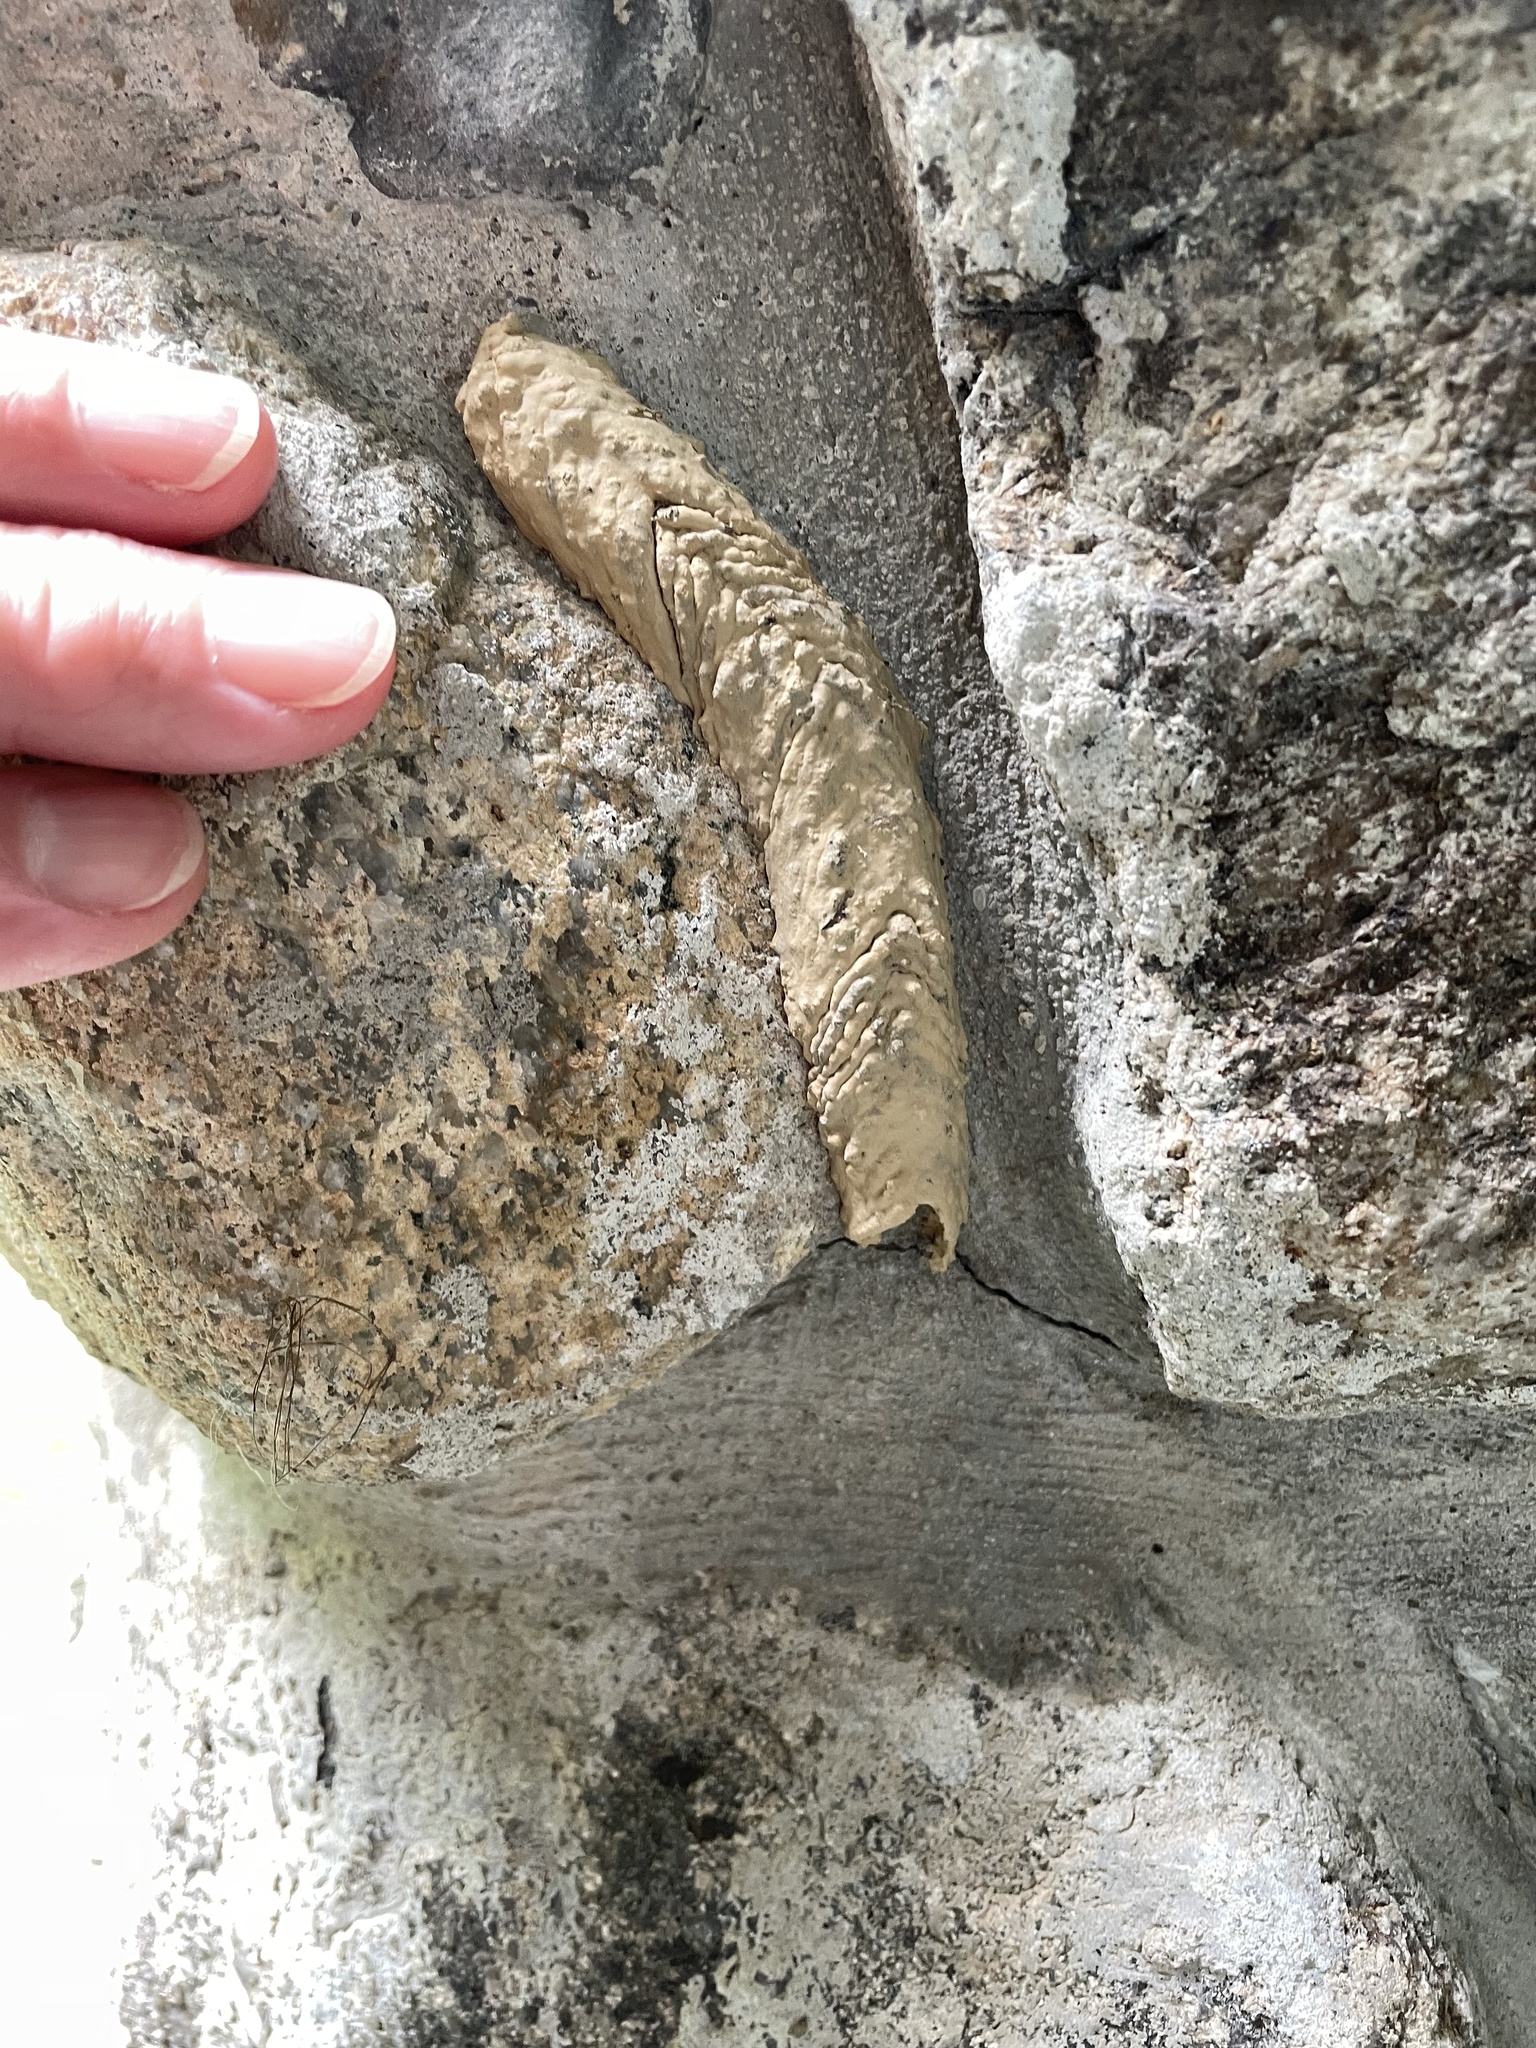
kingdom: Animalia
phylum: Arthropoda
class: Insecta
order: Hymenoptera
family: Crabronidae
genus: Trypoxylon
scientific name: Trypoxylon politum
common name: Organ-pipe mud-dauber wasp
